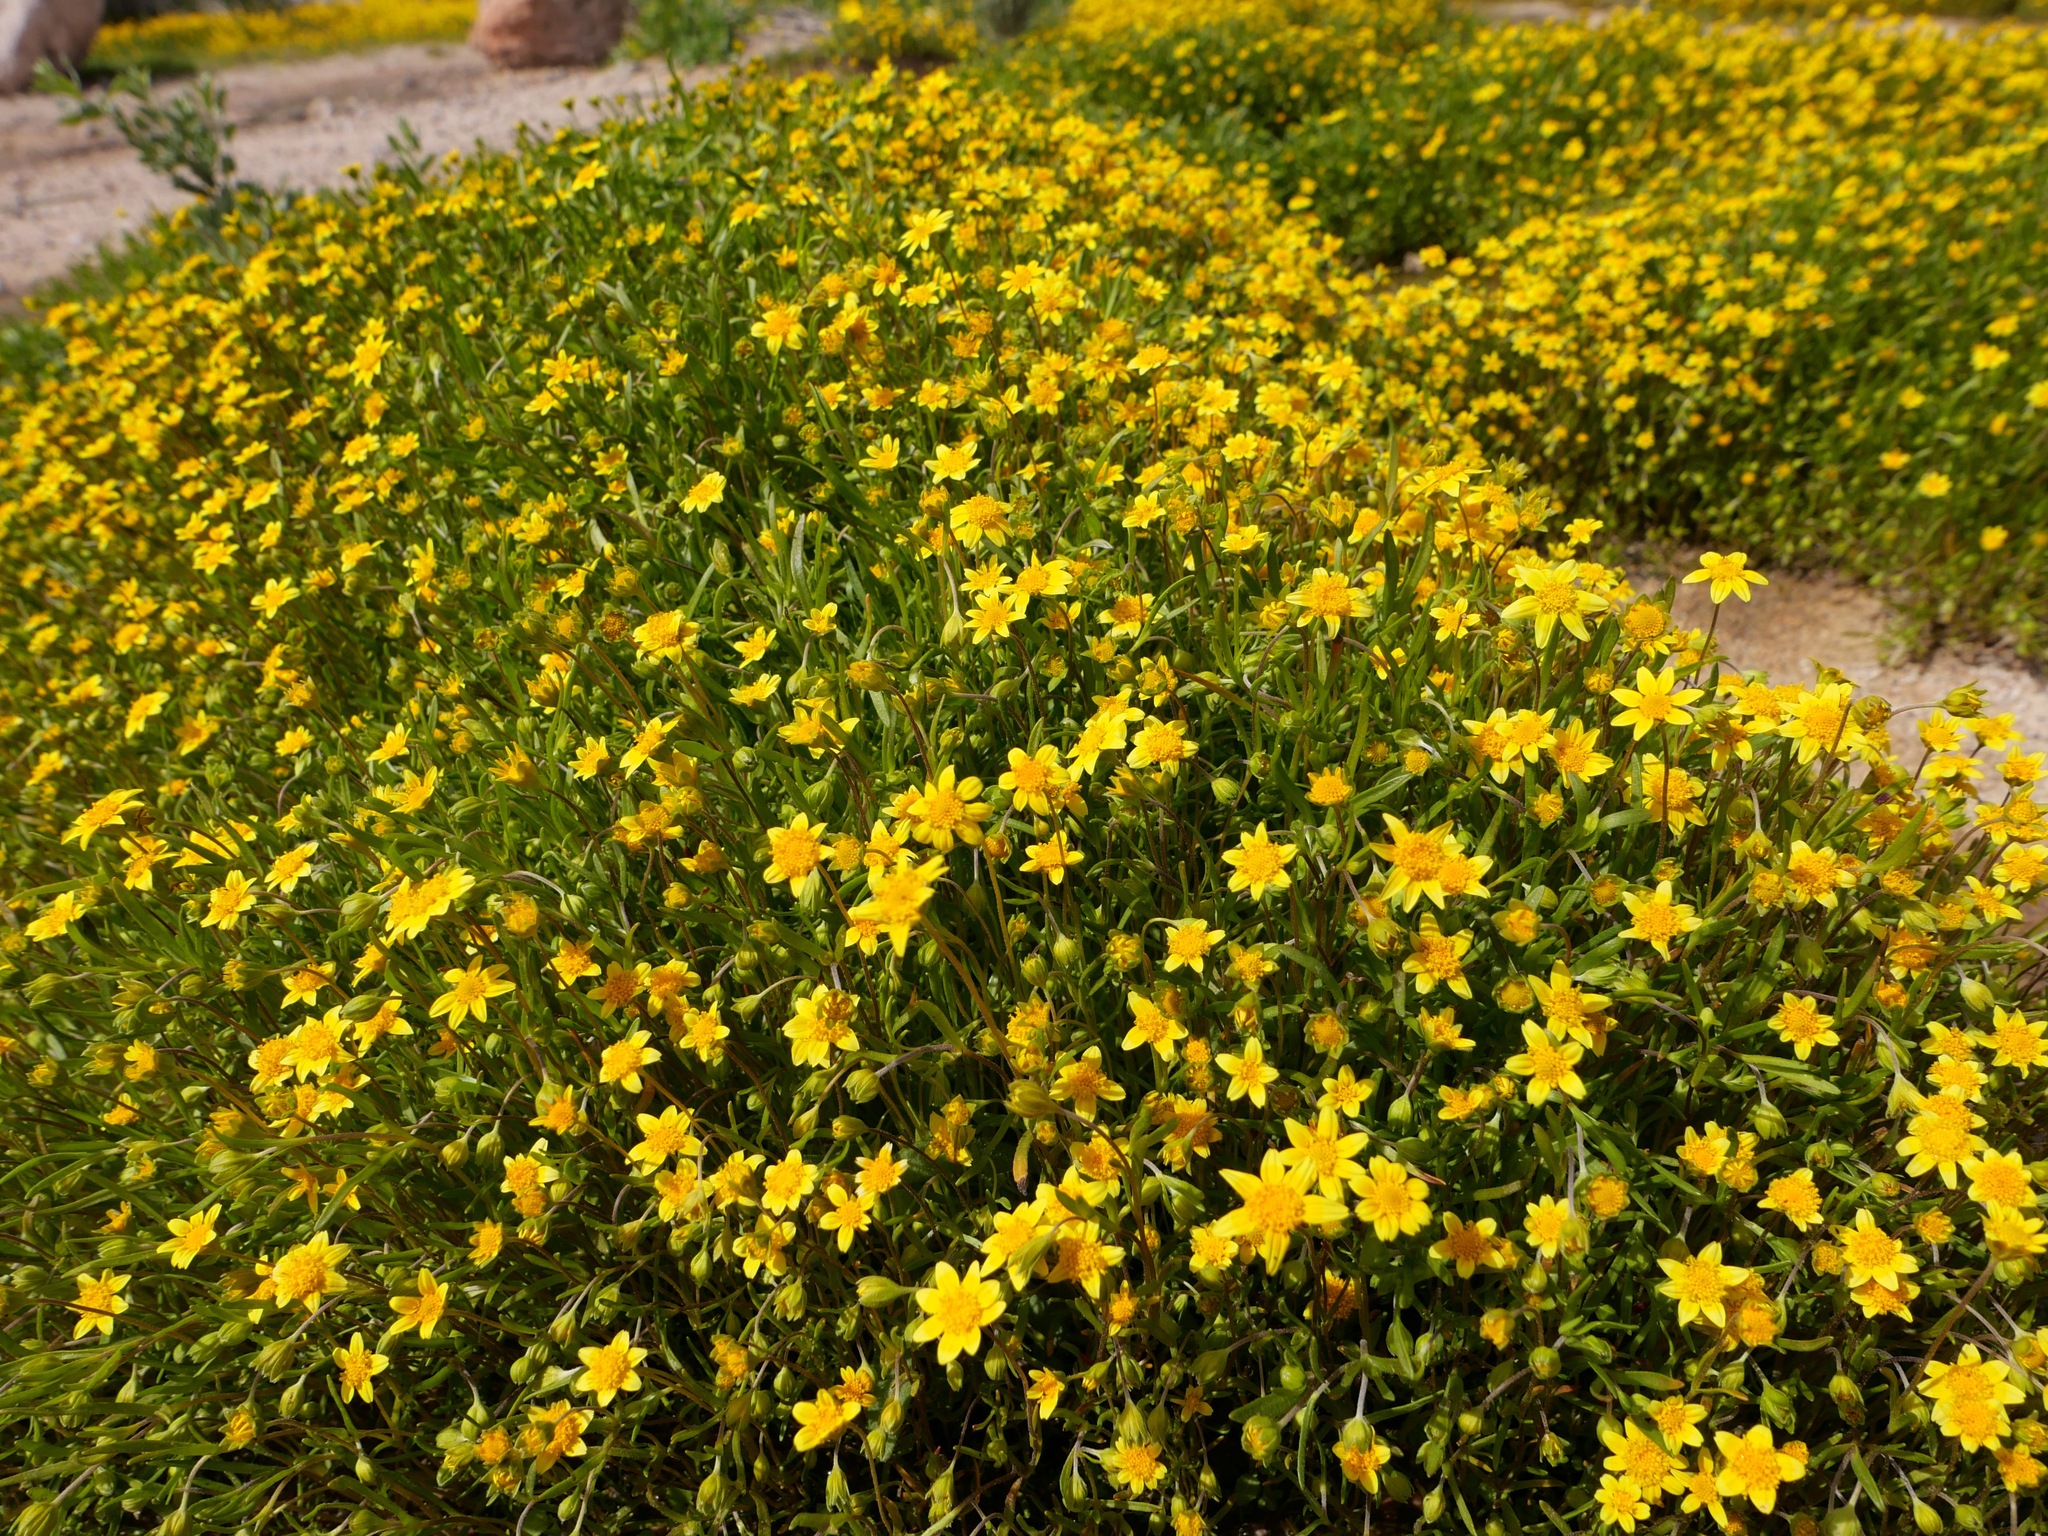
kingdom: Plantae
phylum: Tracheophyta
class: Magnoliopsida
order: Asterales
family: Asteraceae
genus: Lasthenia
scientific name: Lasthenia gracilis
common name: Common goldfields
